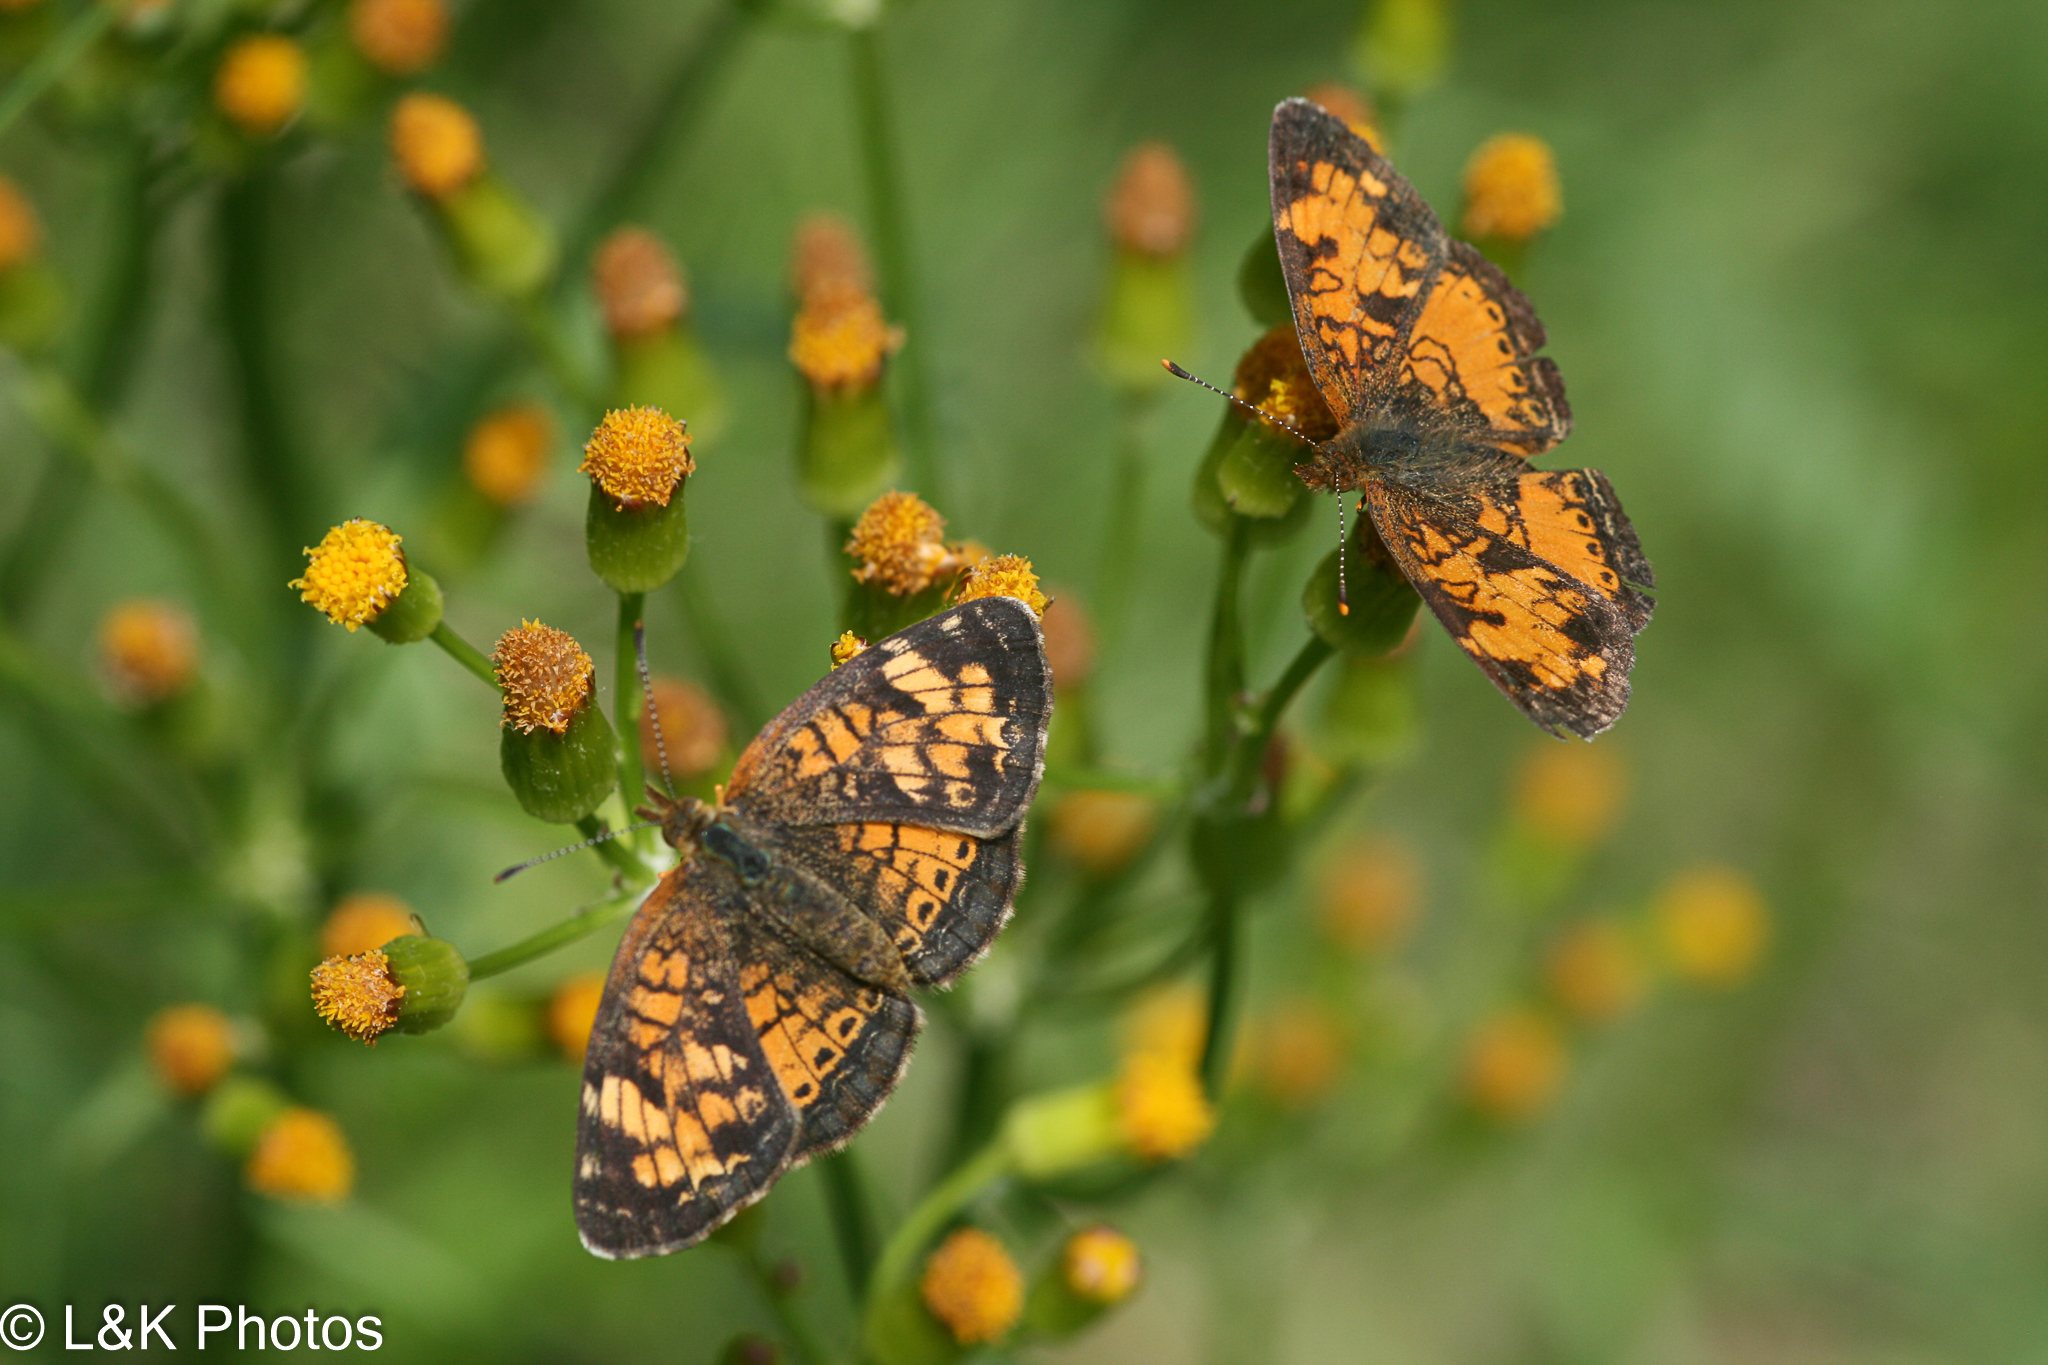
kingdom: Animalia
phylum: Arthropoda
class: Insecta
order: Lepidoptera
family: Nymphalidae
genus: Phyciodes
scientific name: Phyciodes tharos
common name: Pearl crescent
